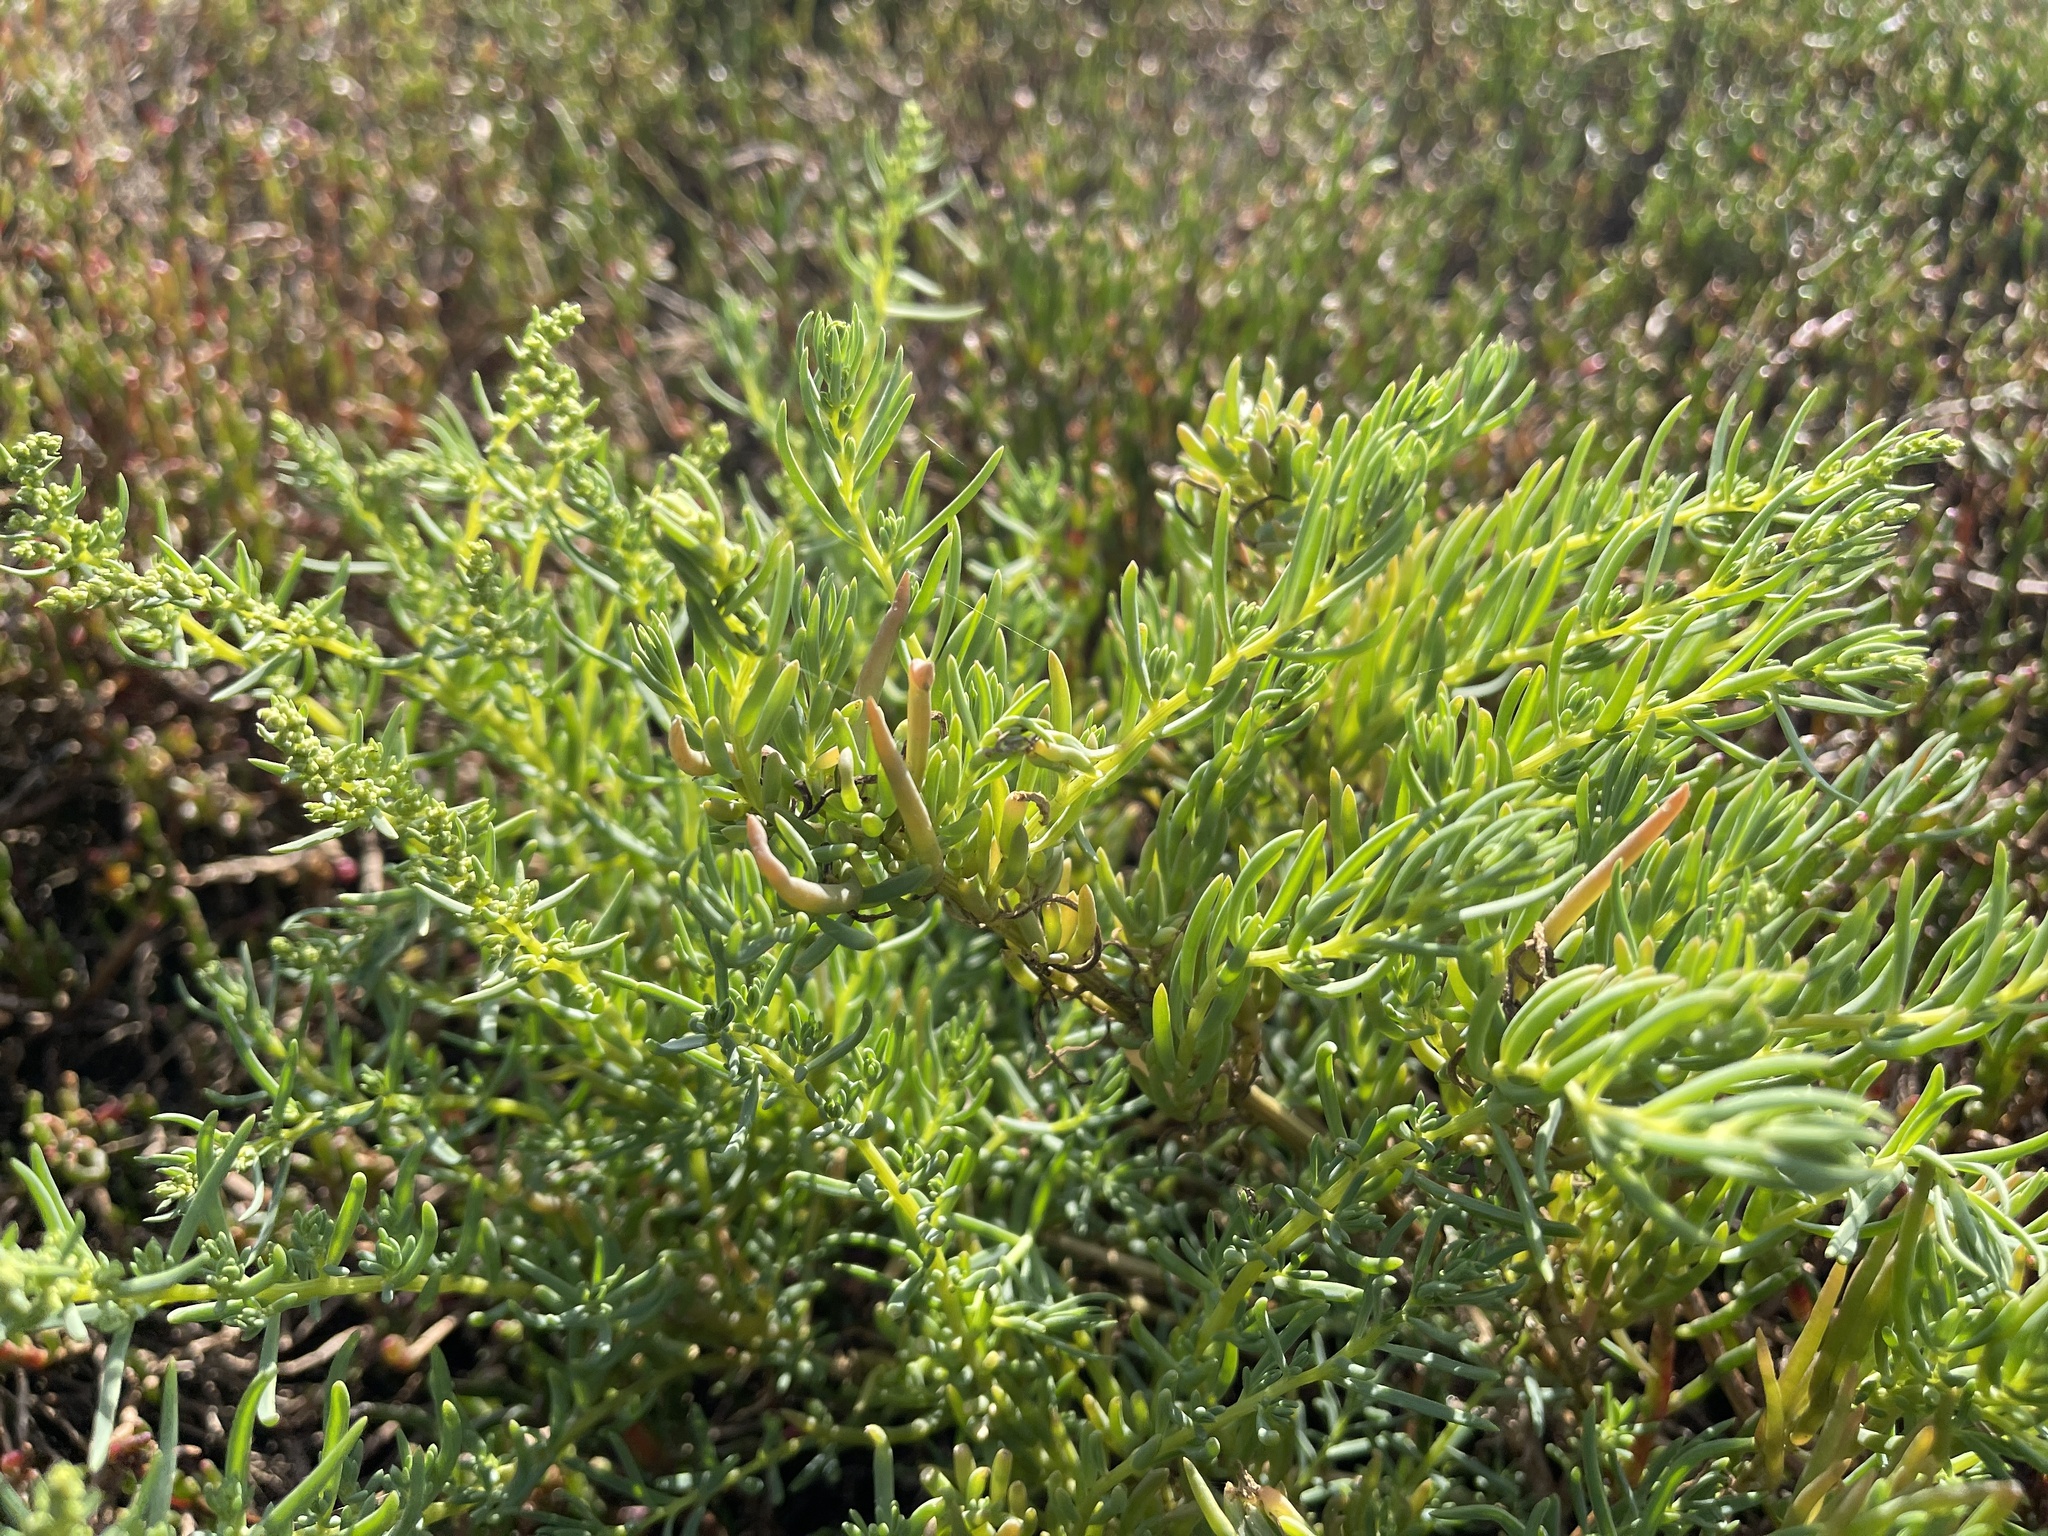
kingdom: Plantae
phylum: Tracheophyta
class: Magnoliopsida
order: Caryophyllales
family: Amaranthaceae
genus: Suaeda
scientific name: Suaeda australis
